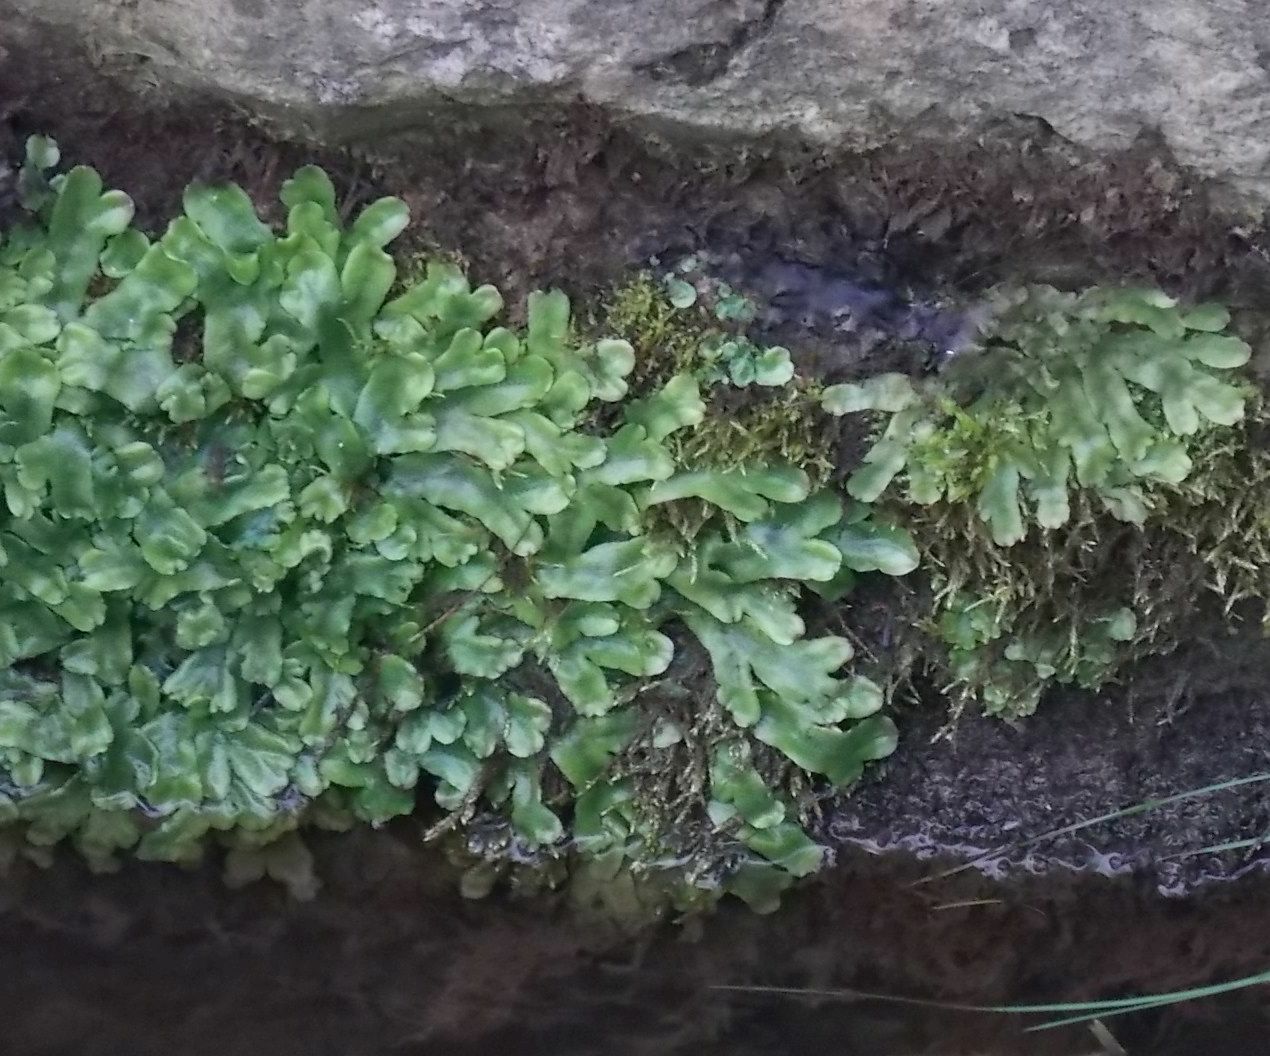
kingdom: Plantae
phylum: Marchantiophyta
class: Marchantiopsida
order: Marchantiales
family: Conocephalaceae
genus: Conocephalum
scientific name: Conocephalum conicum
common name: Great scented liverwort
